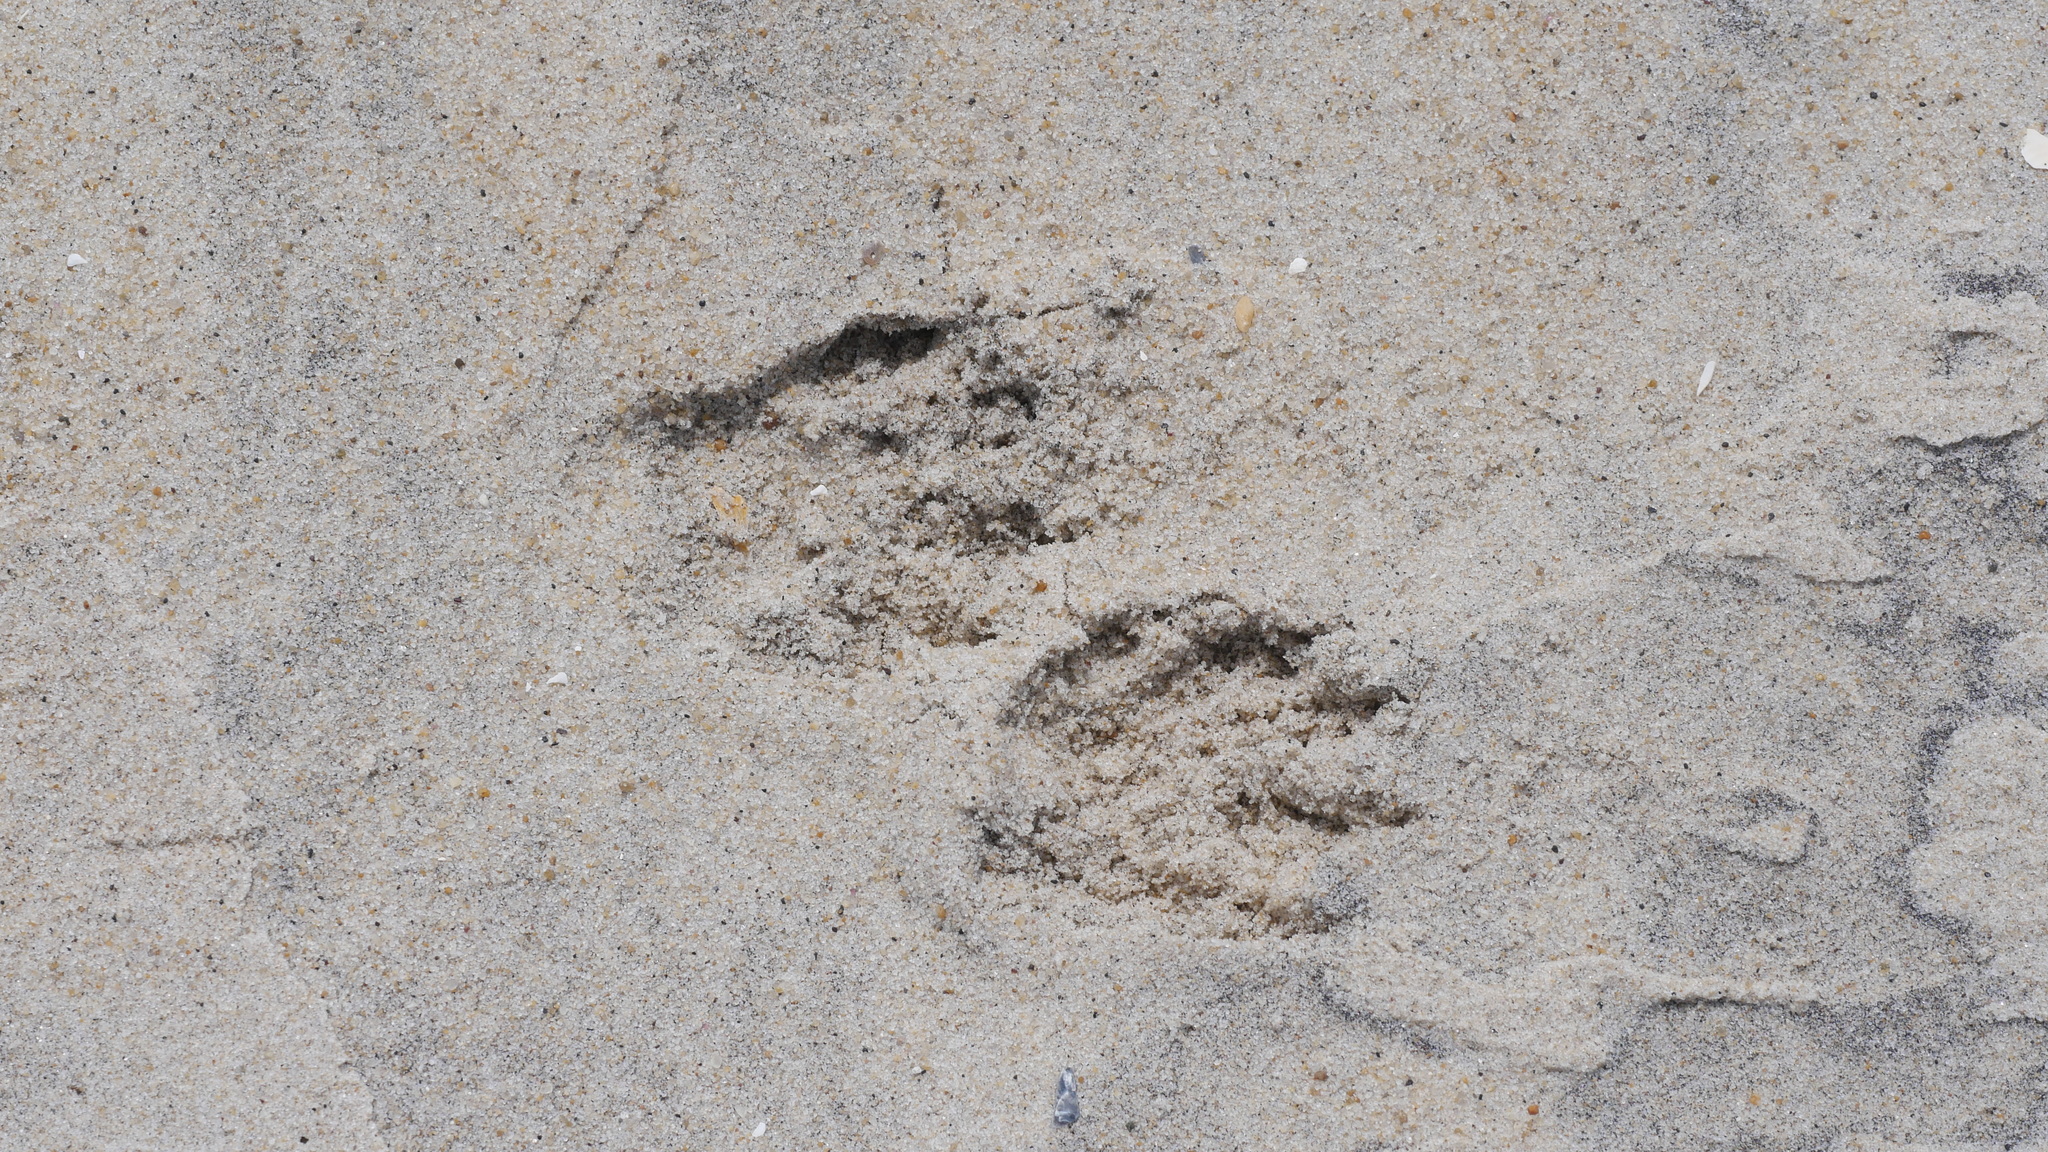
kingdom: Animalia
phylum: Chordata
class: Mammalia
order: Carnivora
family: Procyonidae
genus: Procyon
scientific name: Procyon lotor
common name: Raccoon
